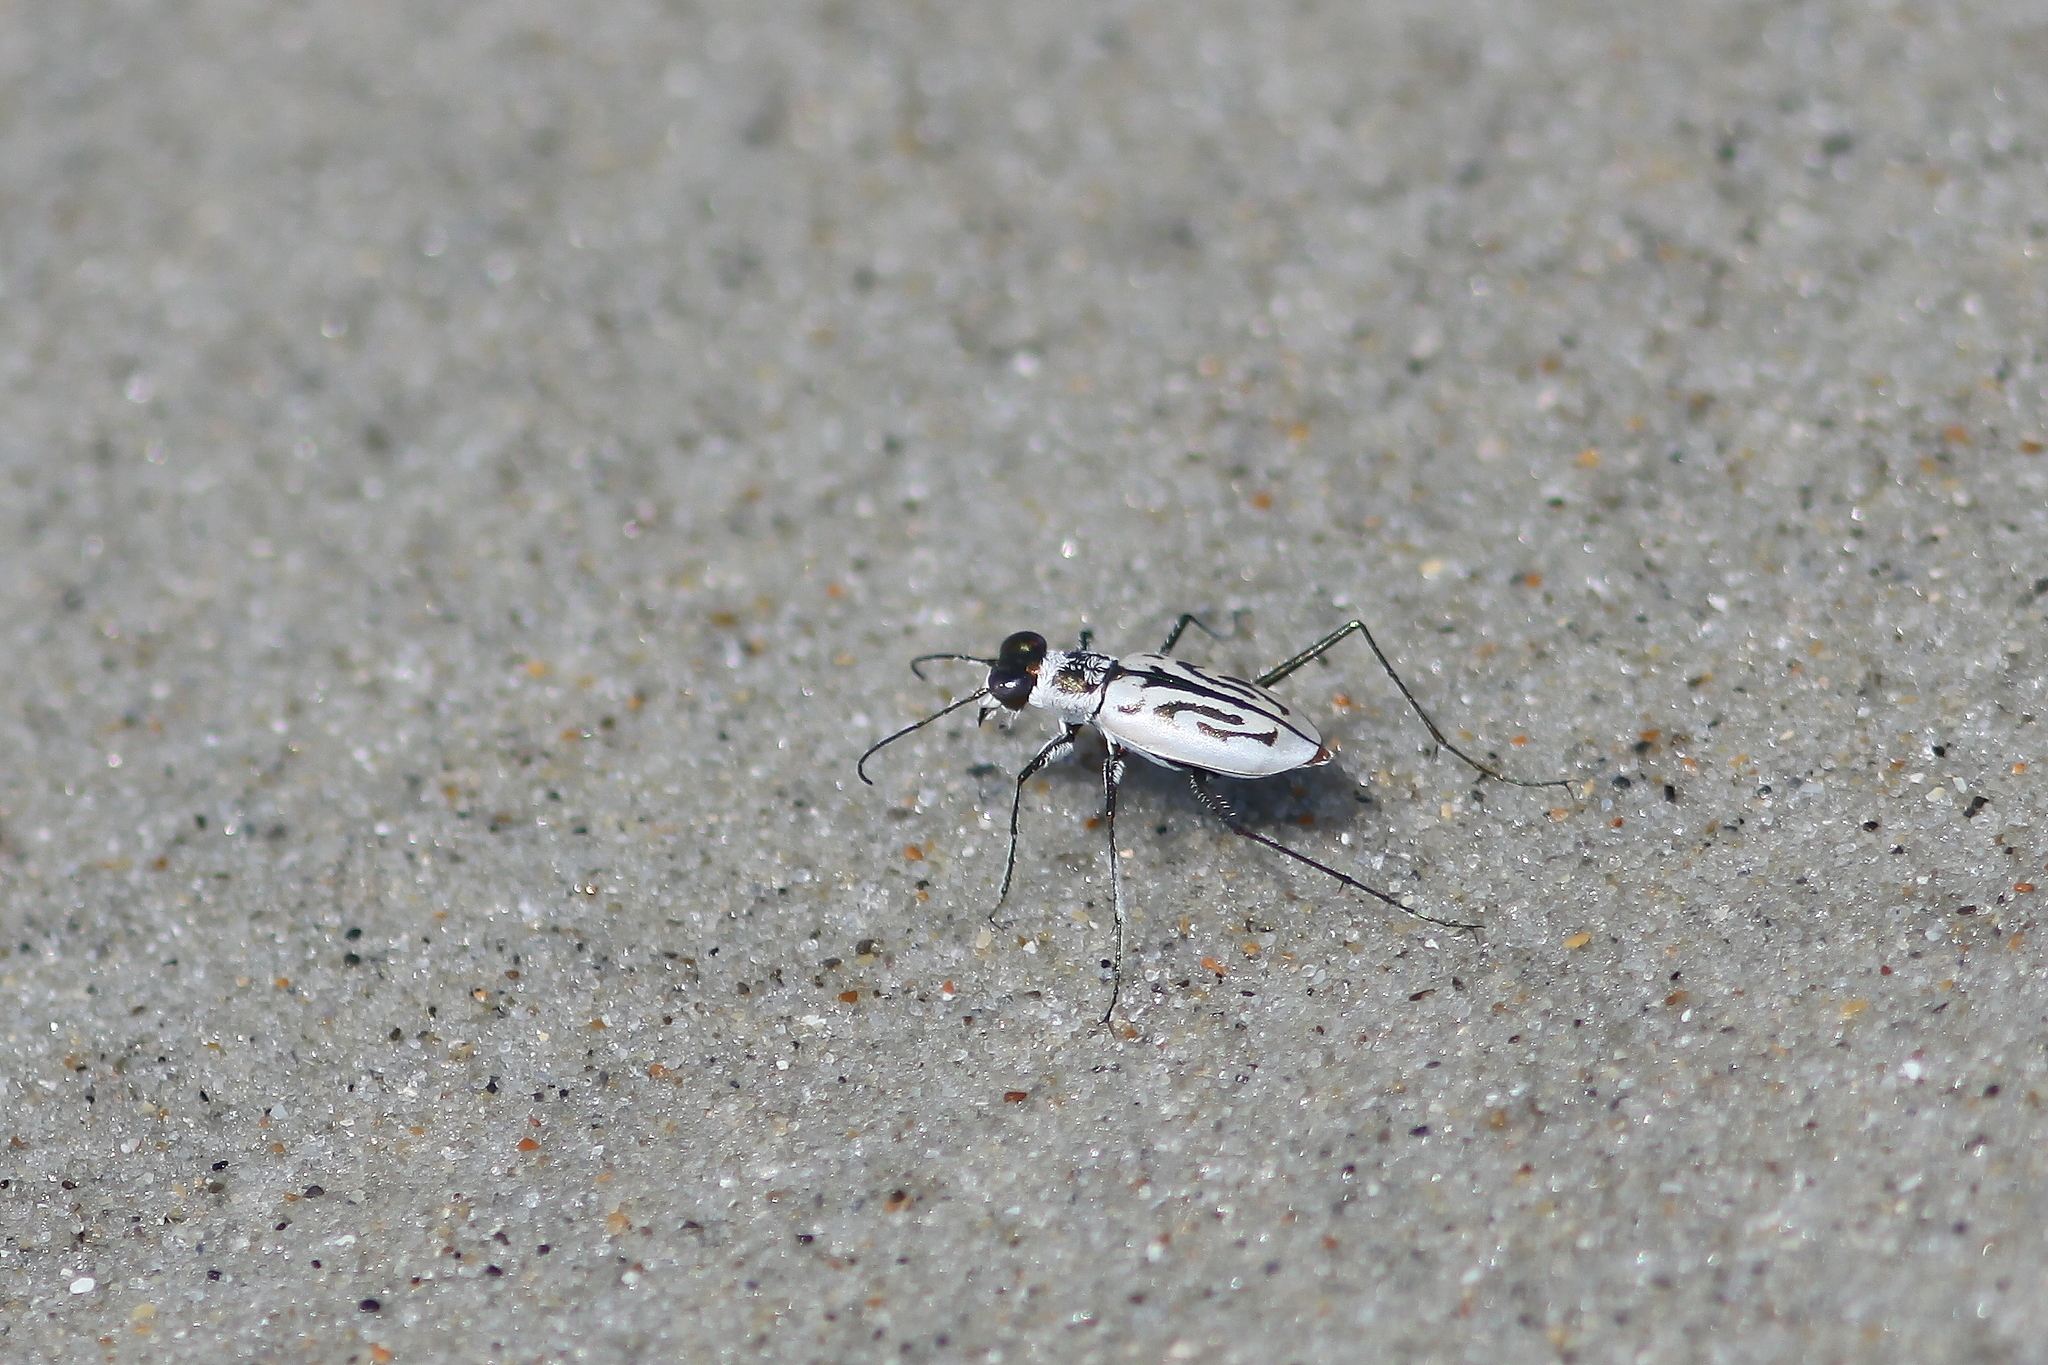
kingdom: Animalia
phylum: Arthropoda
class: Insecta
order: Coleoptera
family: Carabidae
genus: Habroscelimorpha
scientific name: Habroscelimorpha dorsalis
